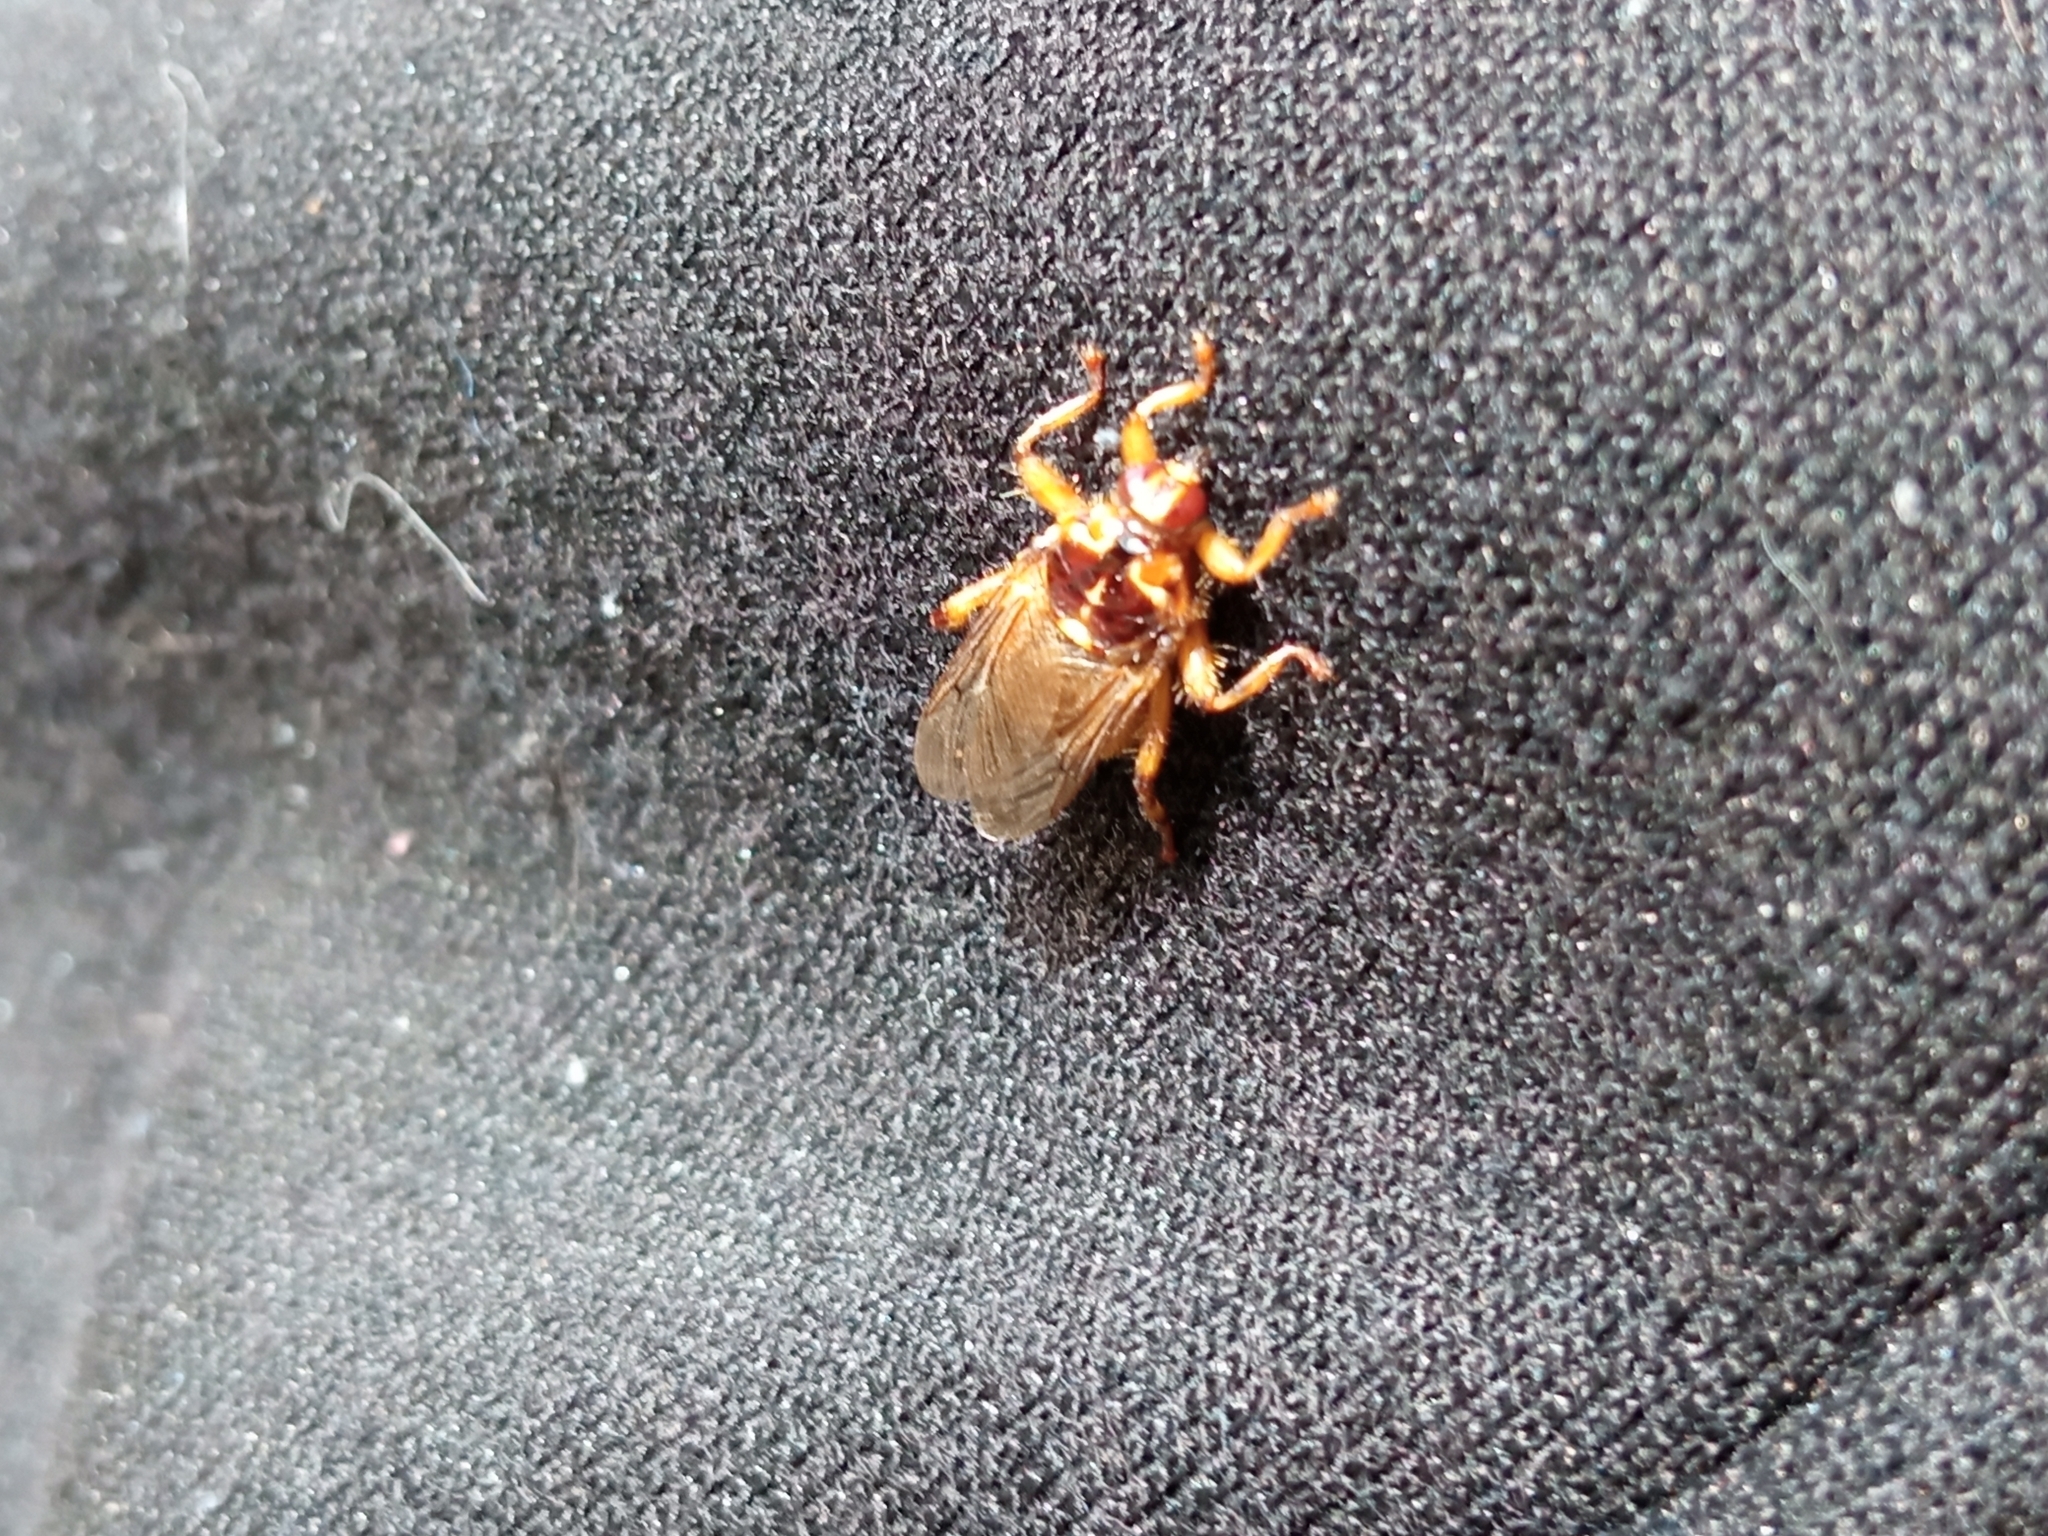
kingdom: Animalia
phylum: Arthropoda
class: Insecta
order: Diptera
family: Hippoboscidae
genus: Hippobosca
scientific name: Hippobosca equina
